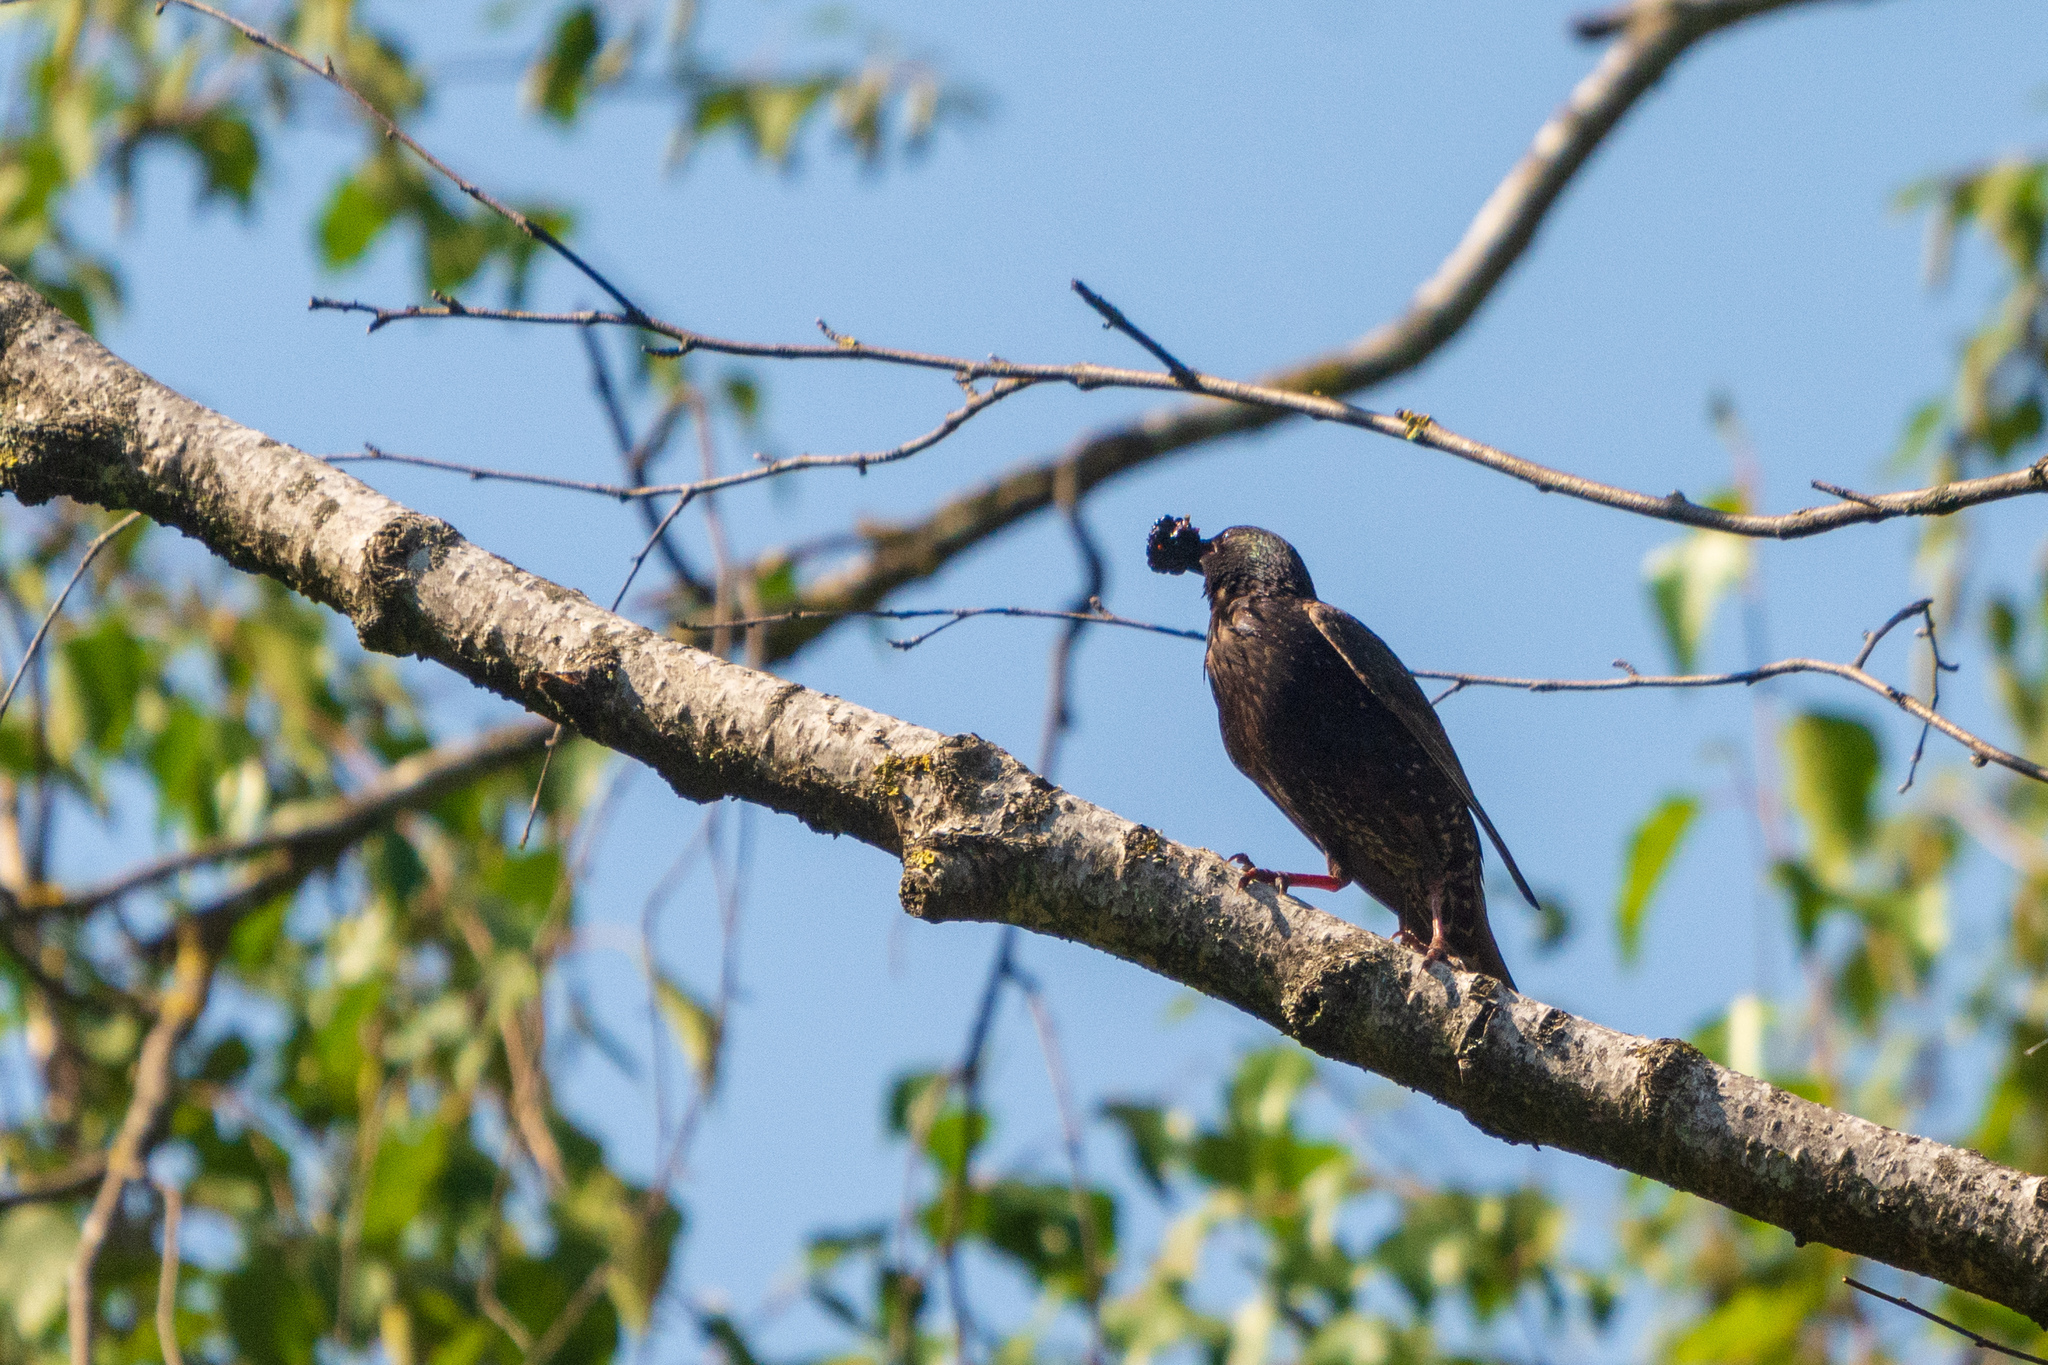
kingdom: Animalia
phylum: Chordata
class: Aves
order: Passeriformes
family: Sturnidae
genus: Sturnus
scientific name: Sturnus vulgaris
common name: Common starling
